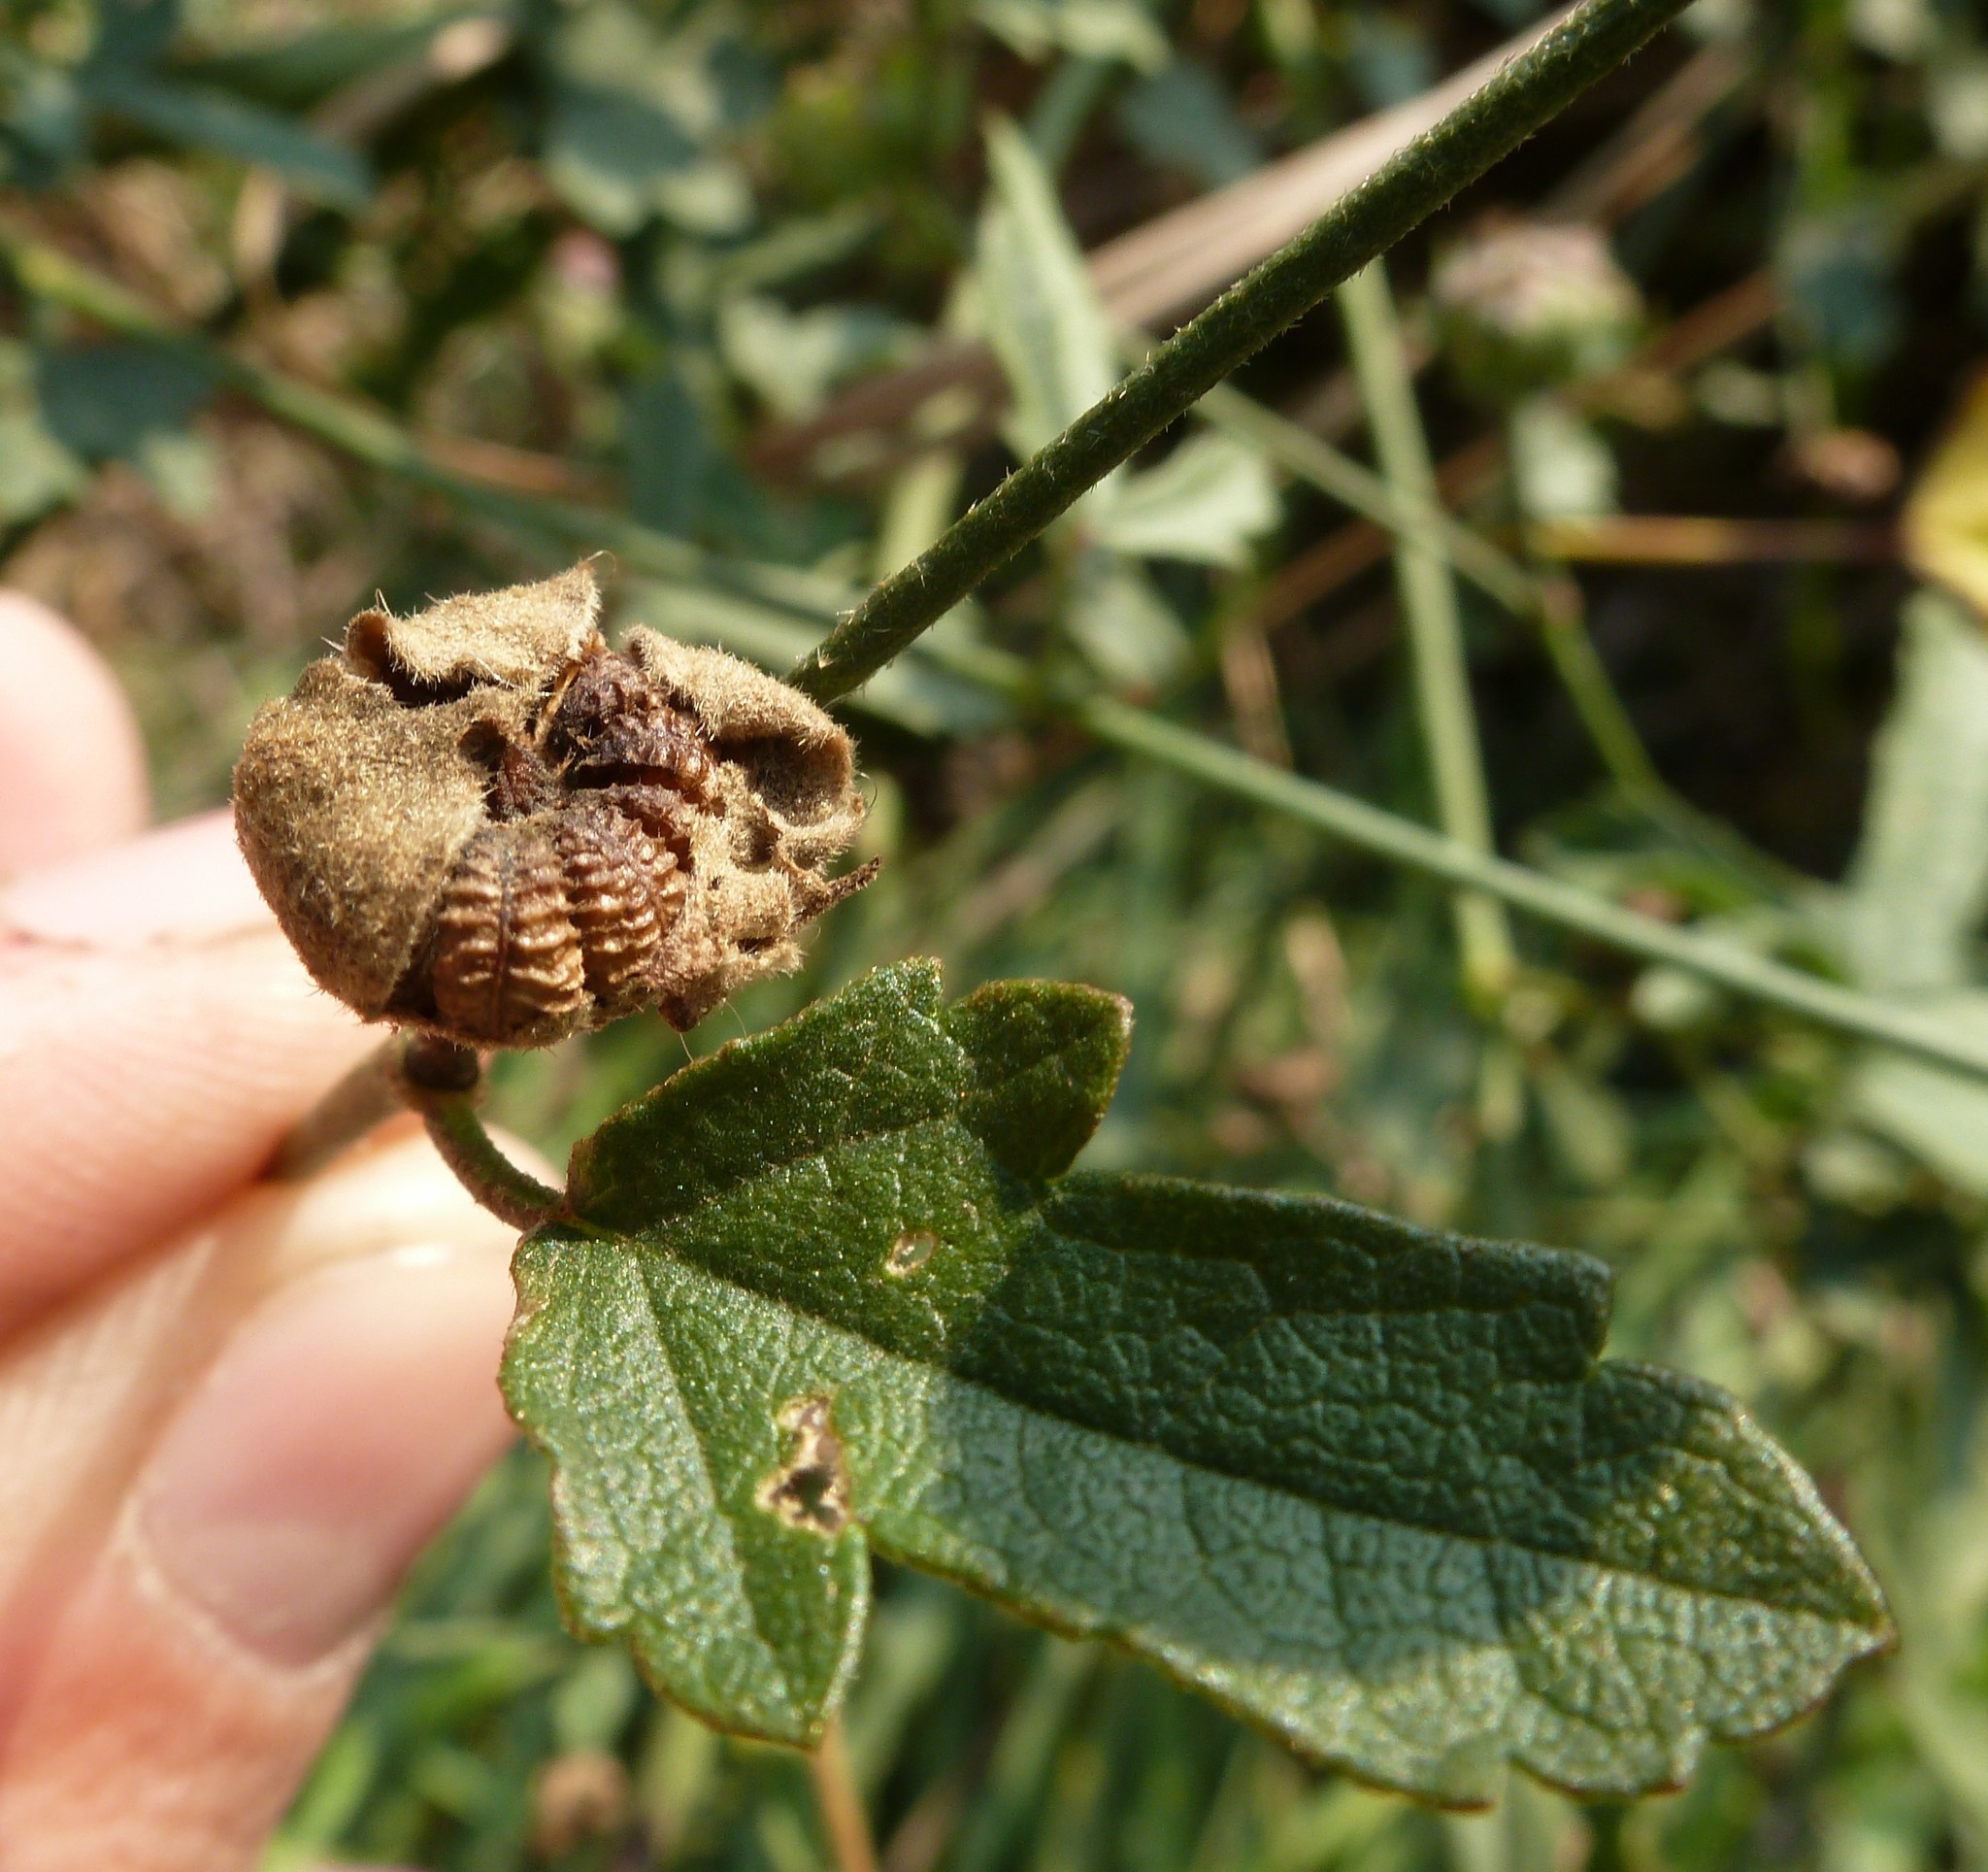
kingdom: Plantae
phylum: Tracheophyta
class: Magnoliopsida
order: Malvales
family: Malvaceae
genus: Althaea
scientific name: Althaea cannabina
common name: Palm-leaf marshmallow
